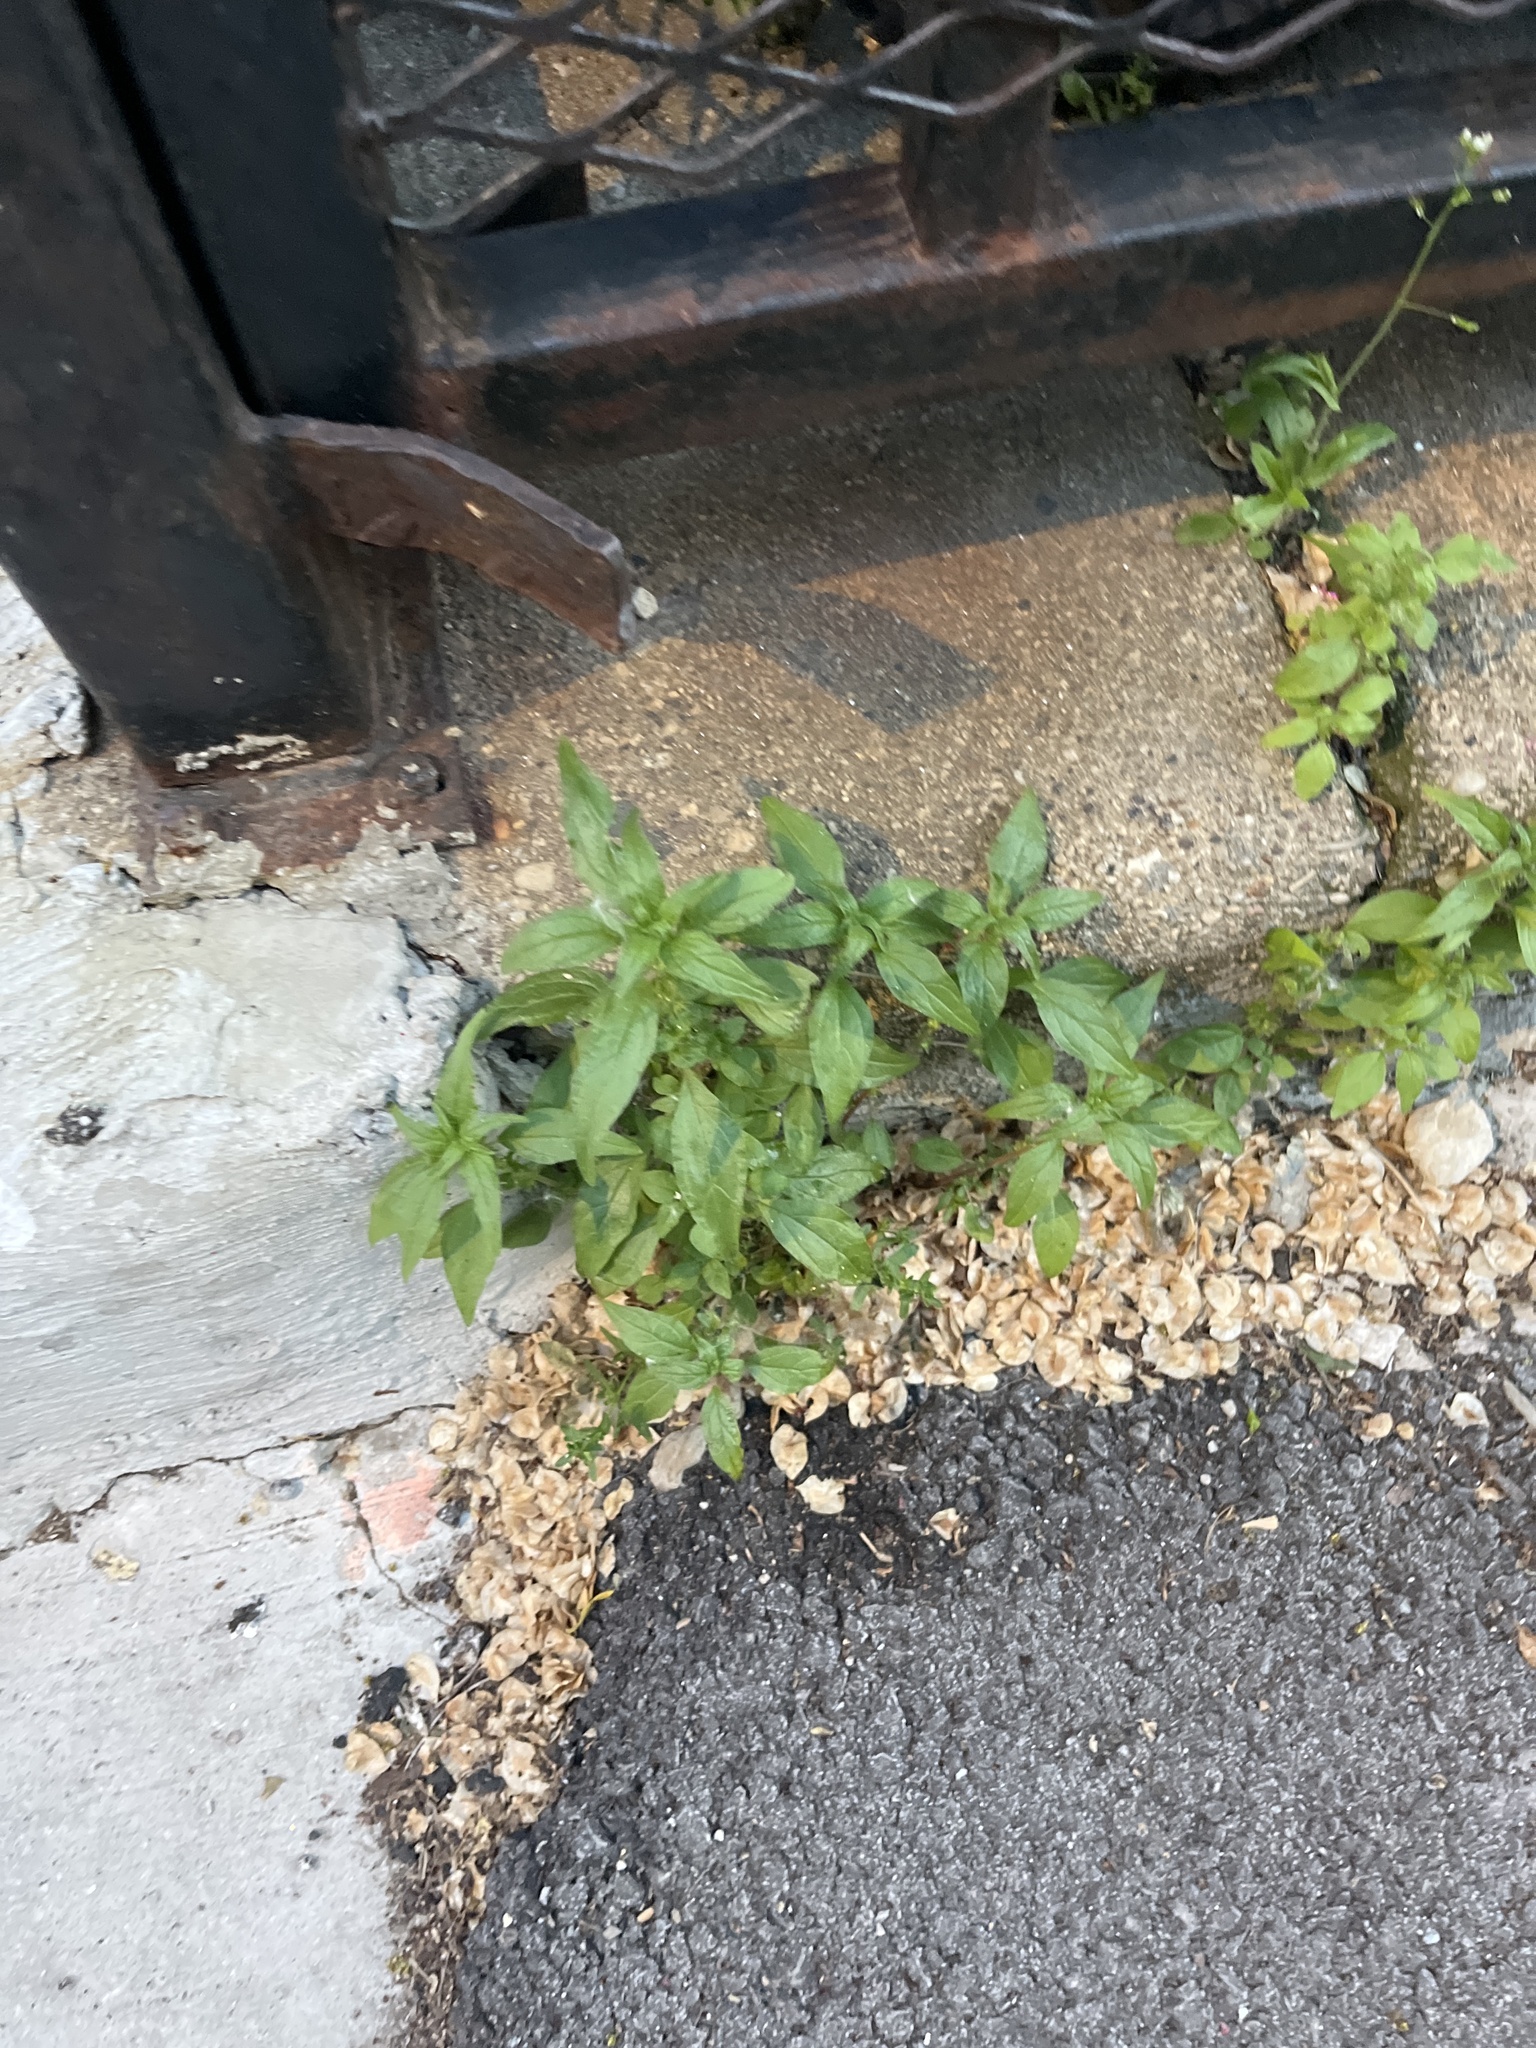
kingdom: Plantae
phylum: Tracheophyta
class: Magnoliopsida
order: Rosales
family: Urticaceae
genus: Parietaria
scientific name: Parietaria pensylvanica
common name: Pennsylvania pellitory
